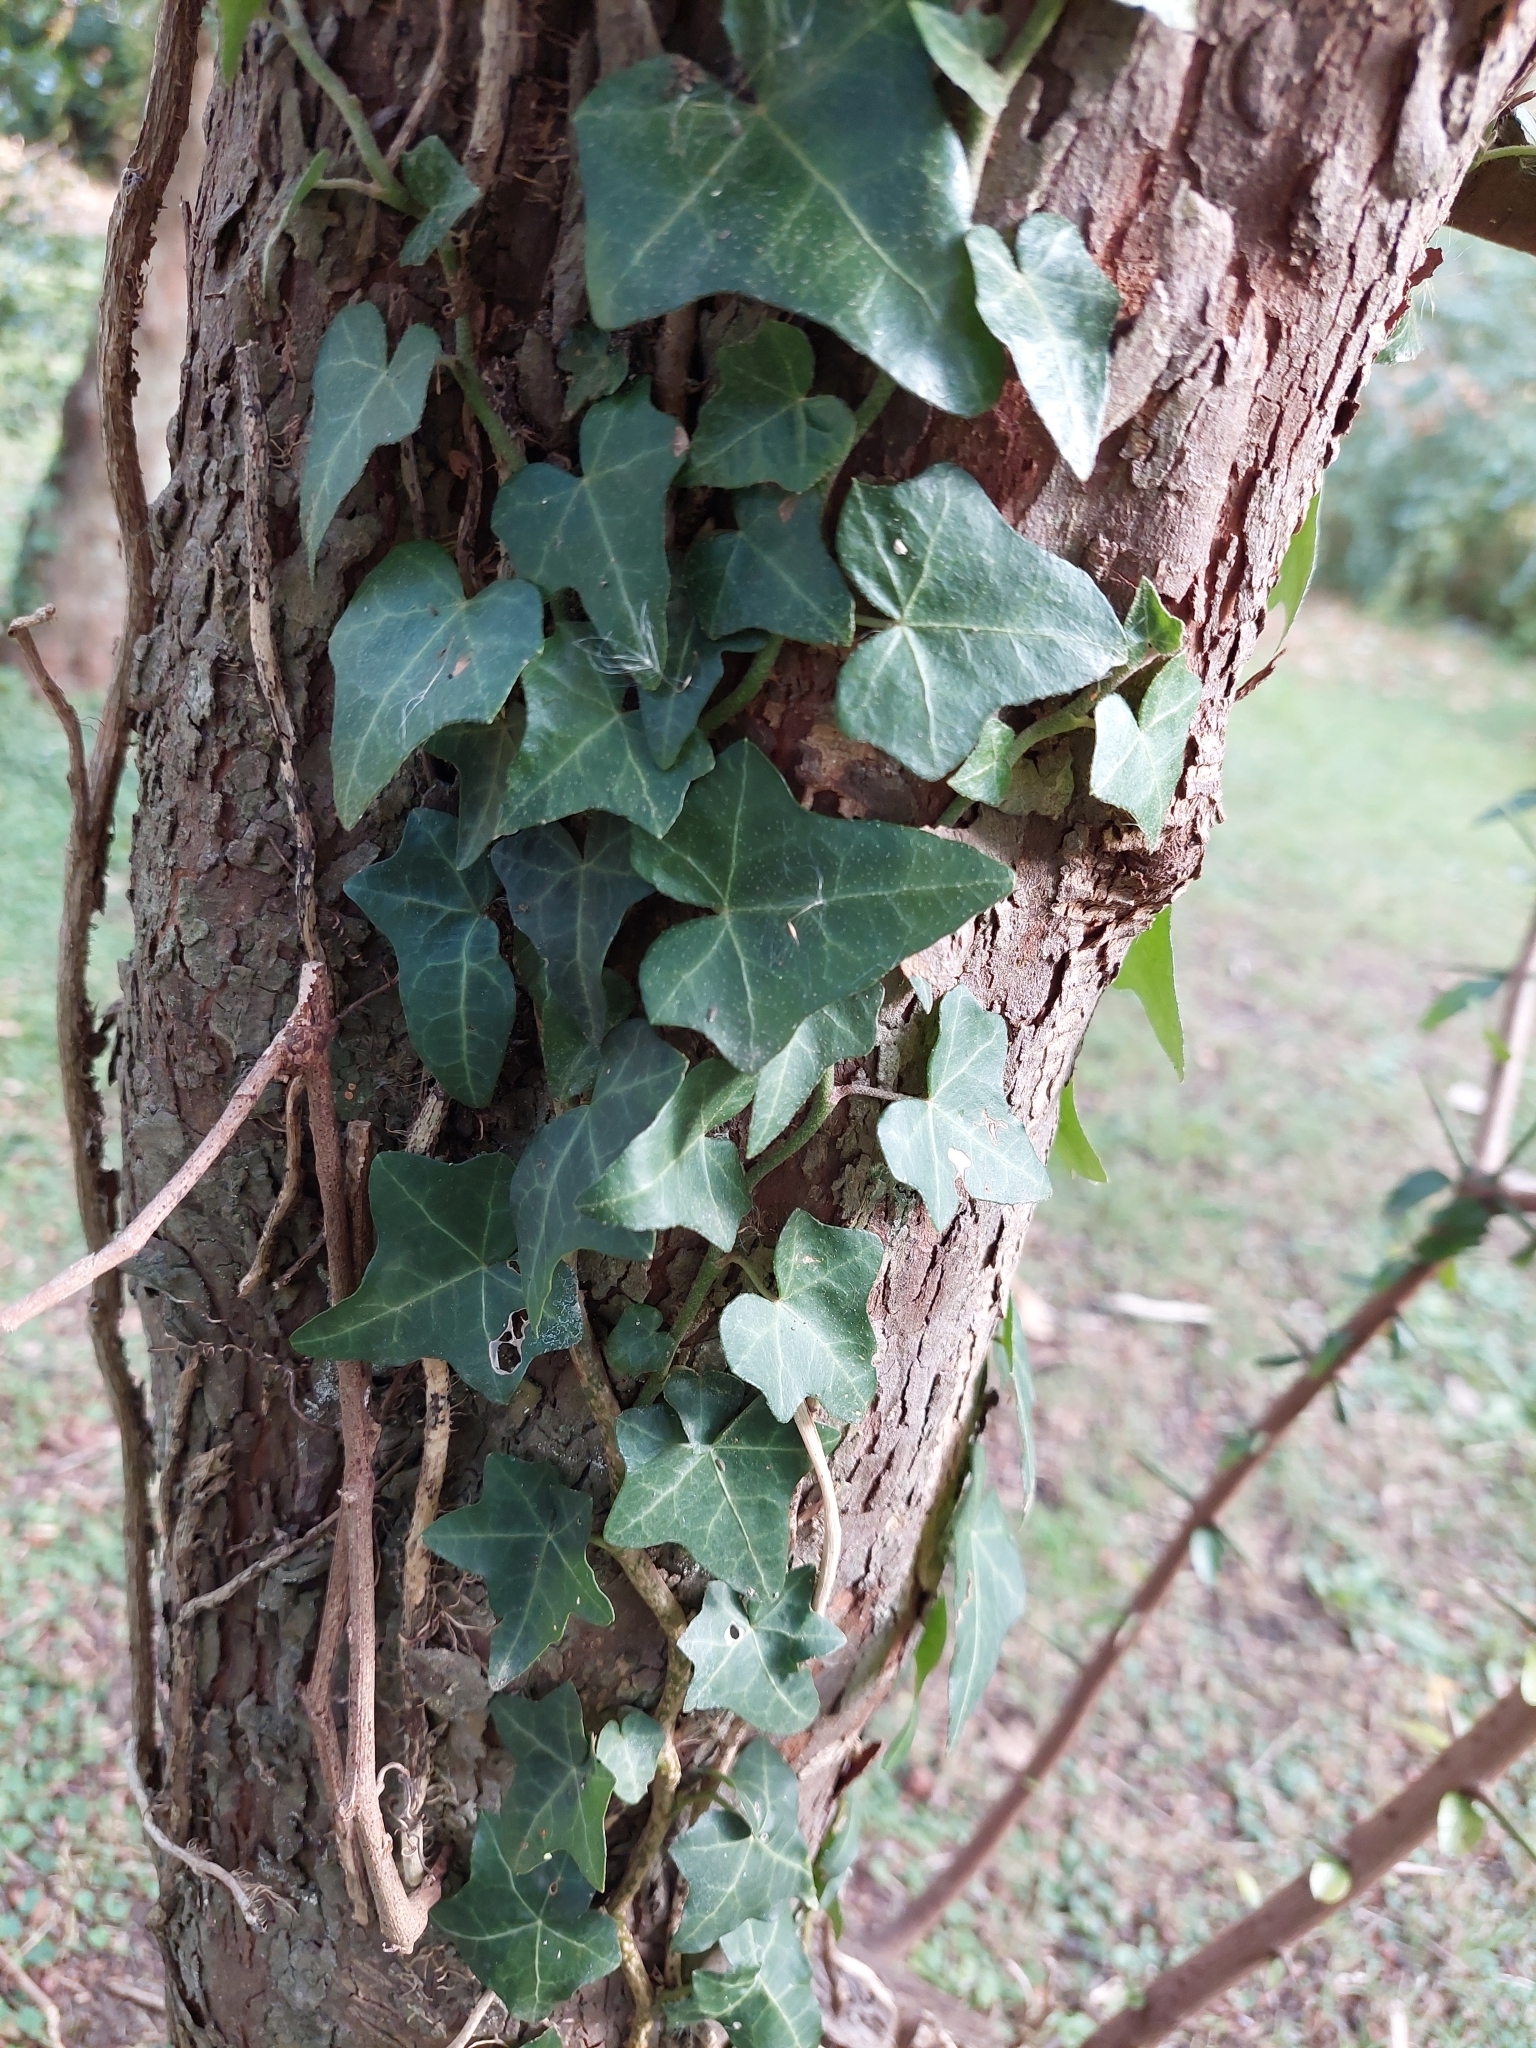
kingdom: Plantae
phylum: Tracheophyta
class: Magnoliopsida
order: Apiales
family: Araliaceae
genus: Hedera
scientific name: Hedera helix
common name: Ivy
